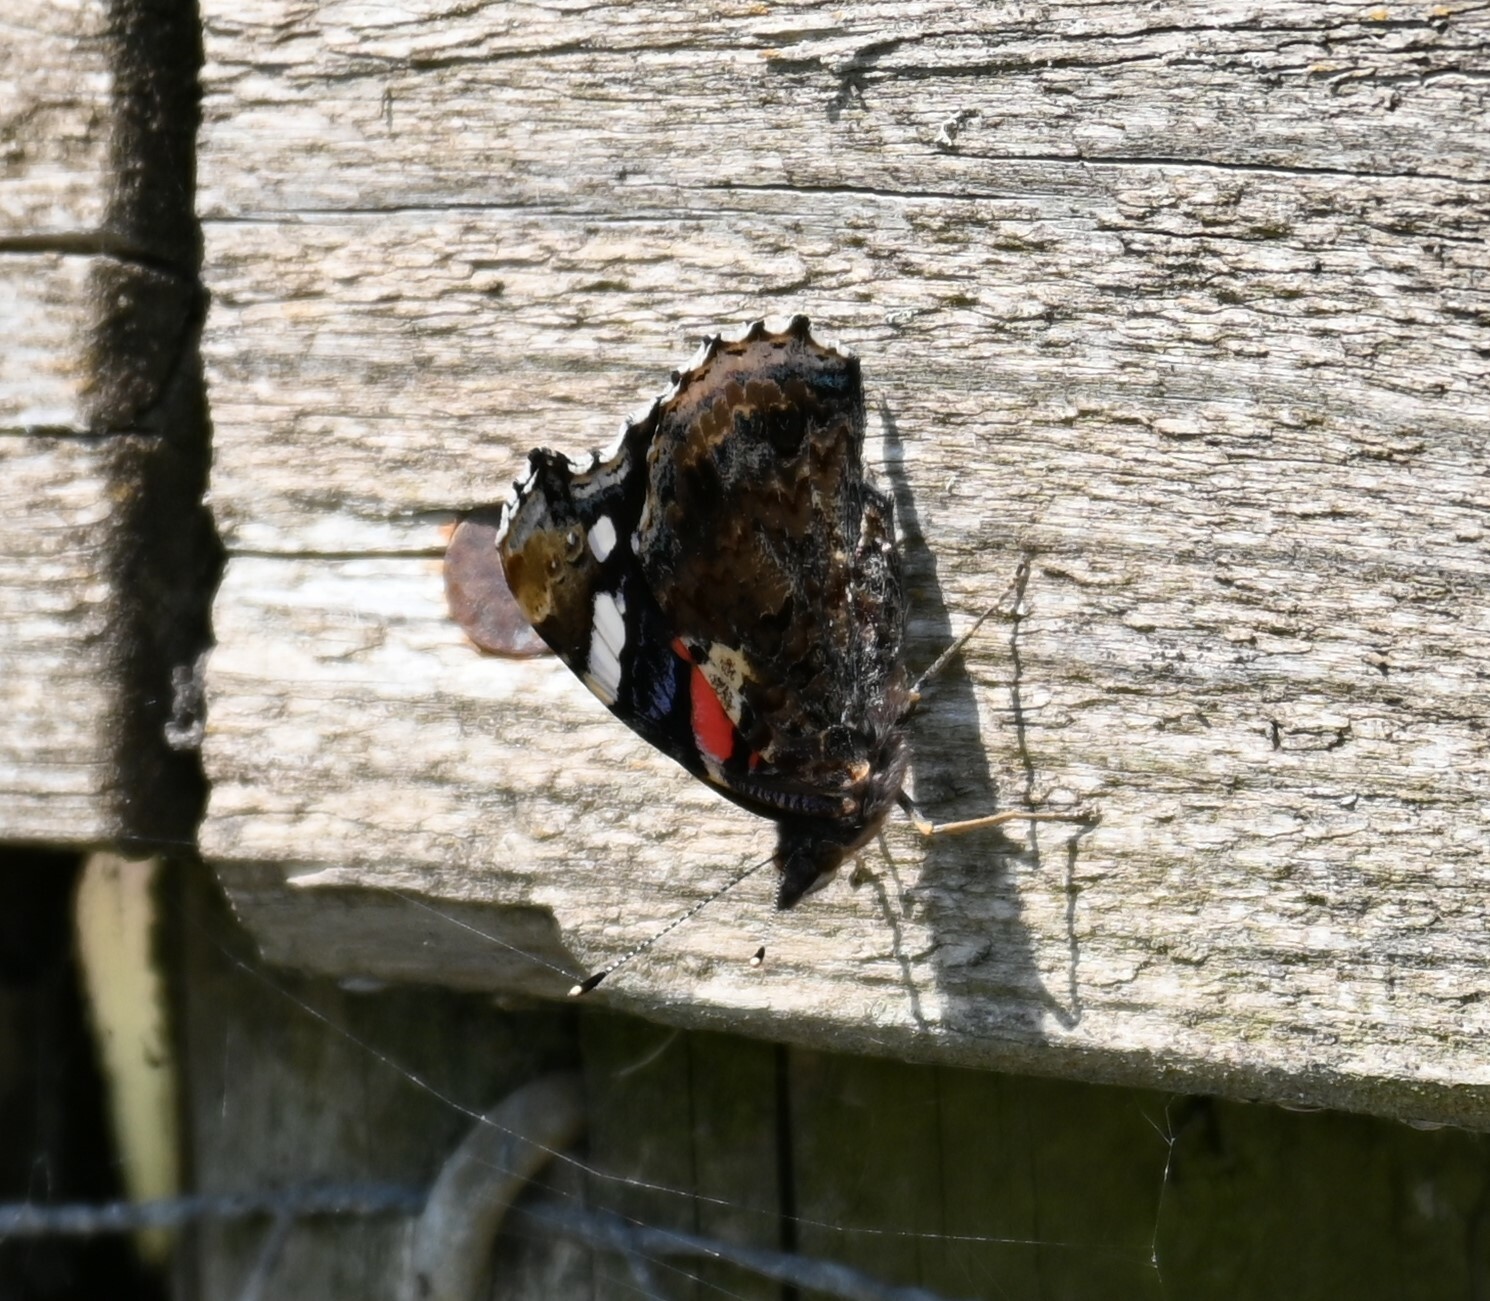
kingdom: Animalia
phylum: Arthropoda
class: Insecta
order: Lepidoptera
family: Nymphalidae
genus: Vanessa
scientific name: Vanessa atalanta
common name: Red admiral
